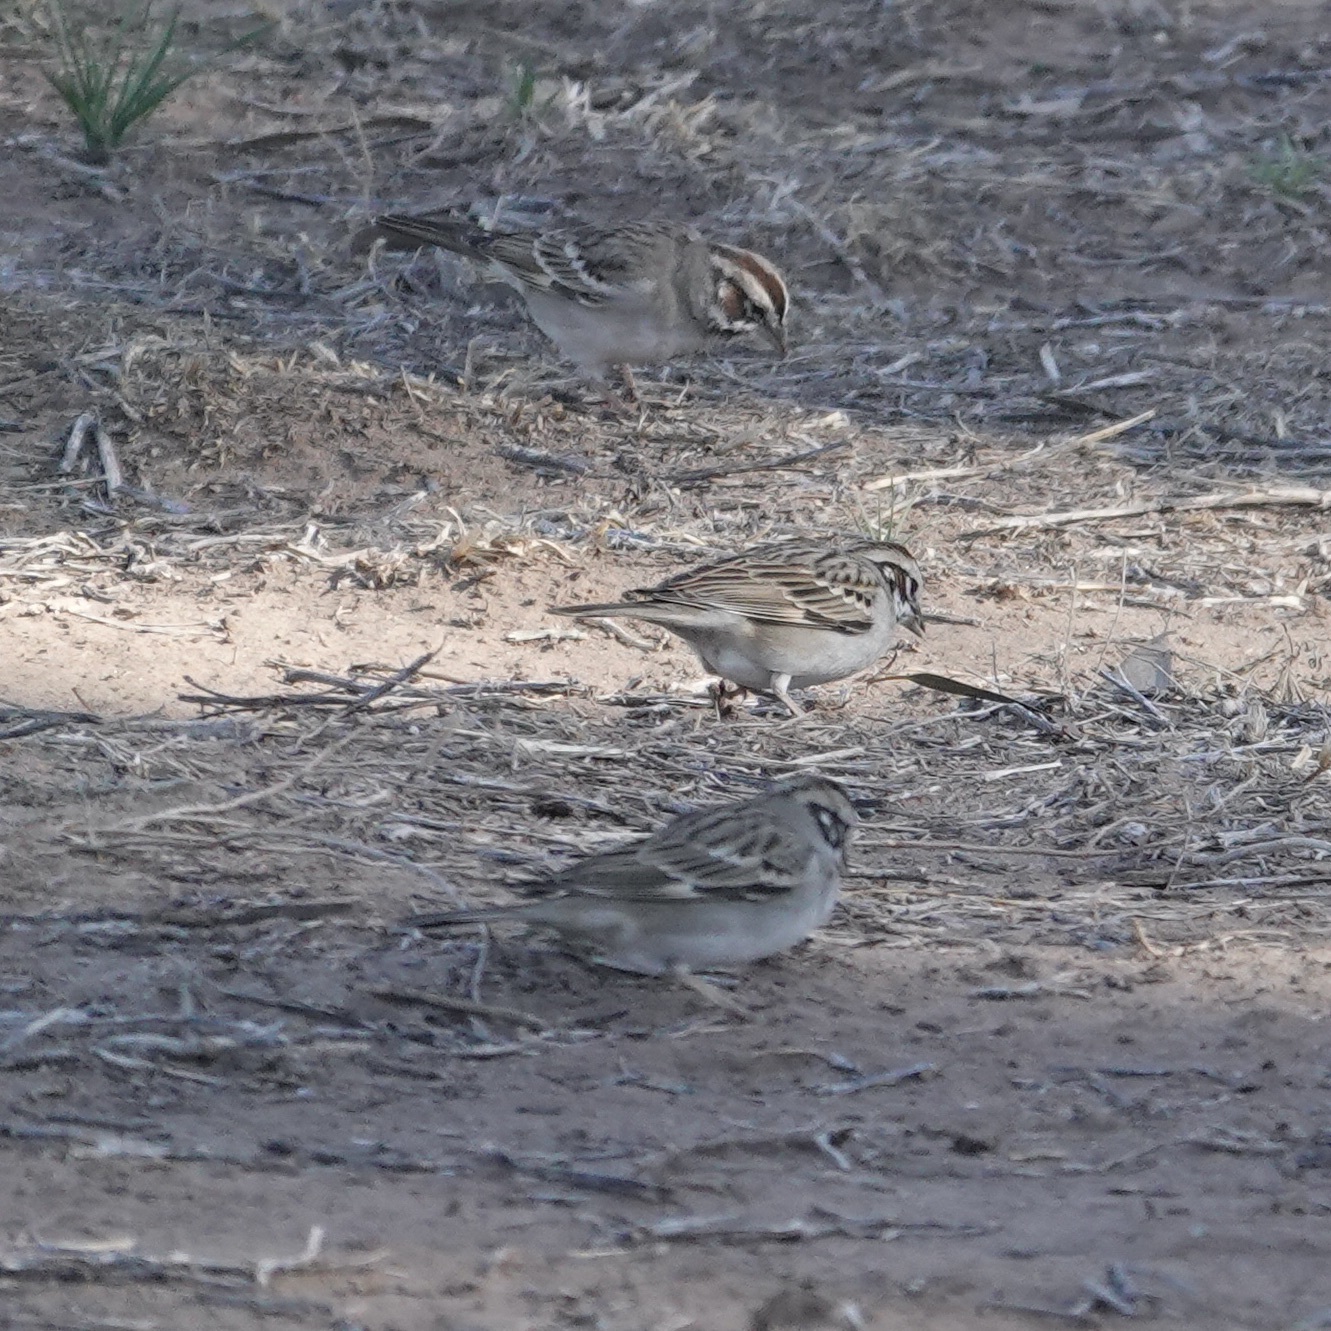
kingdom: Animalia
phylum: Chordata
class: Aves
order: Passeriformes
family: Passerellidae
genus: Chondestes
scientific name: Chondestes grammacus
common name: Lark sparrow
